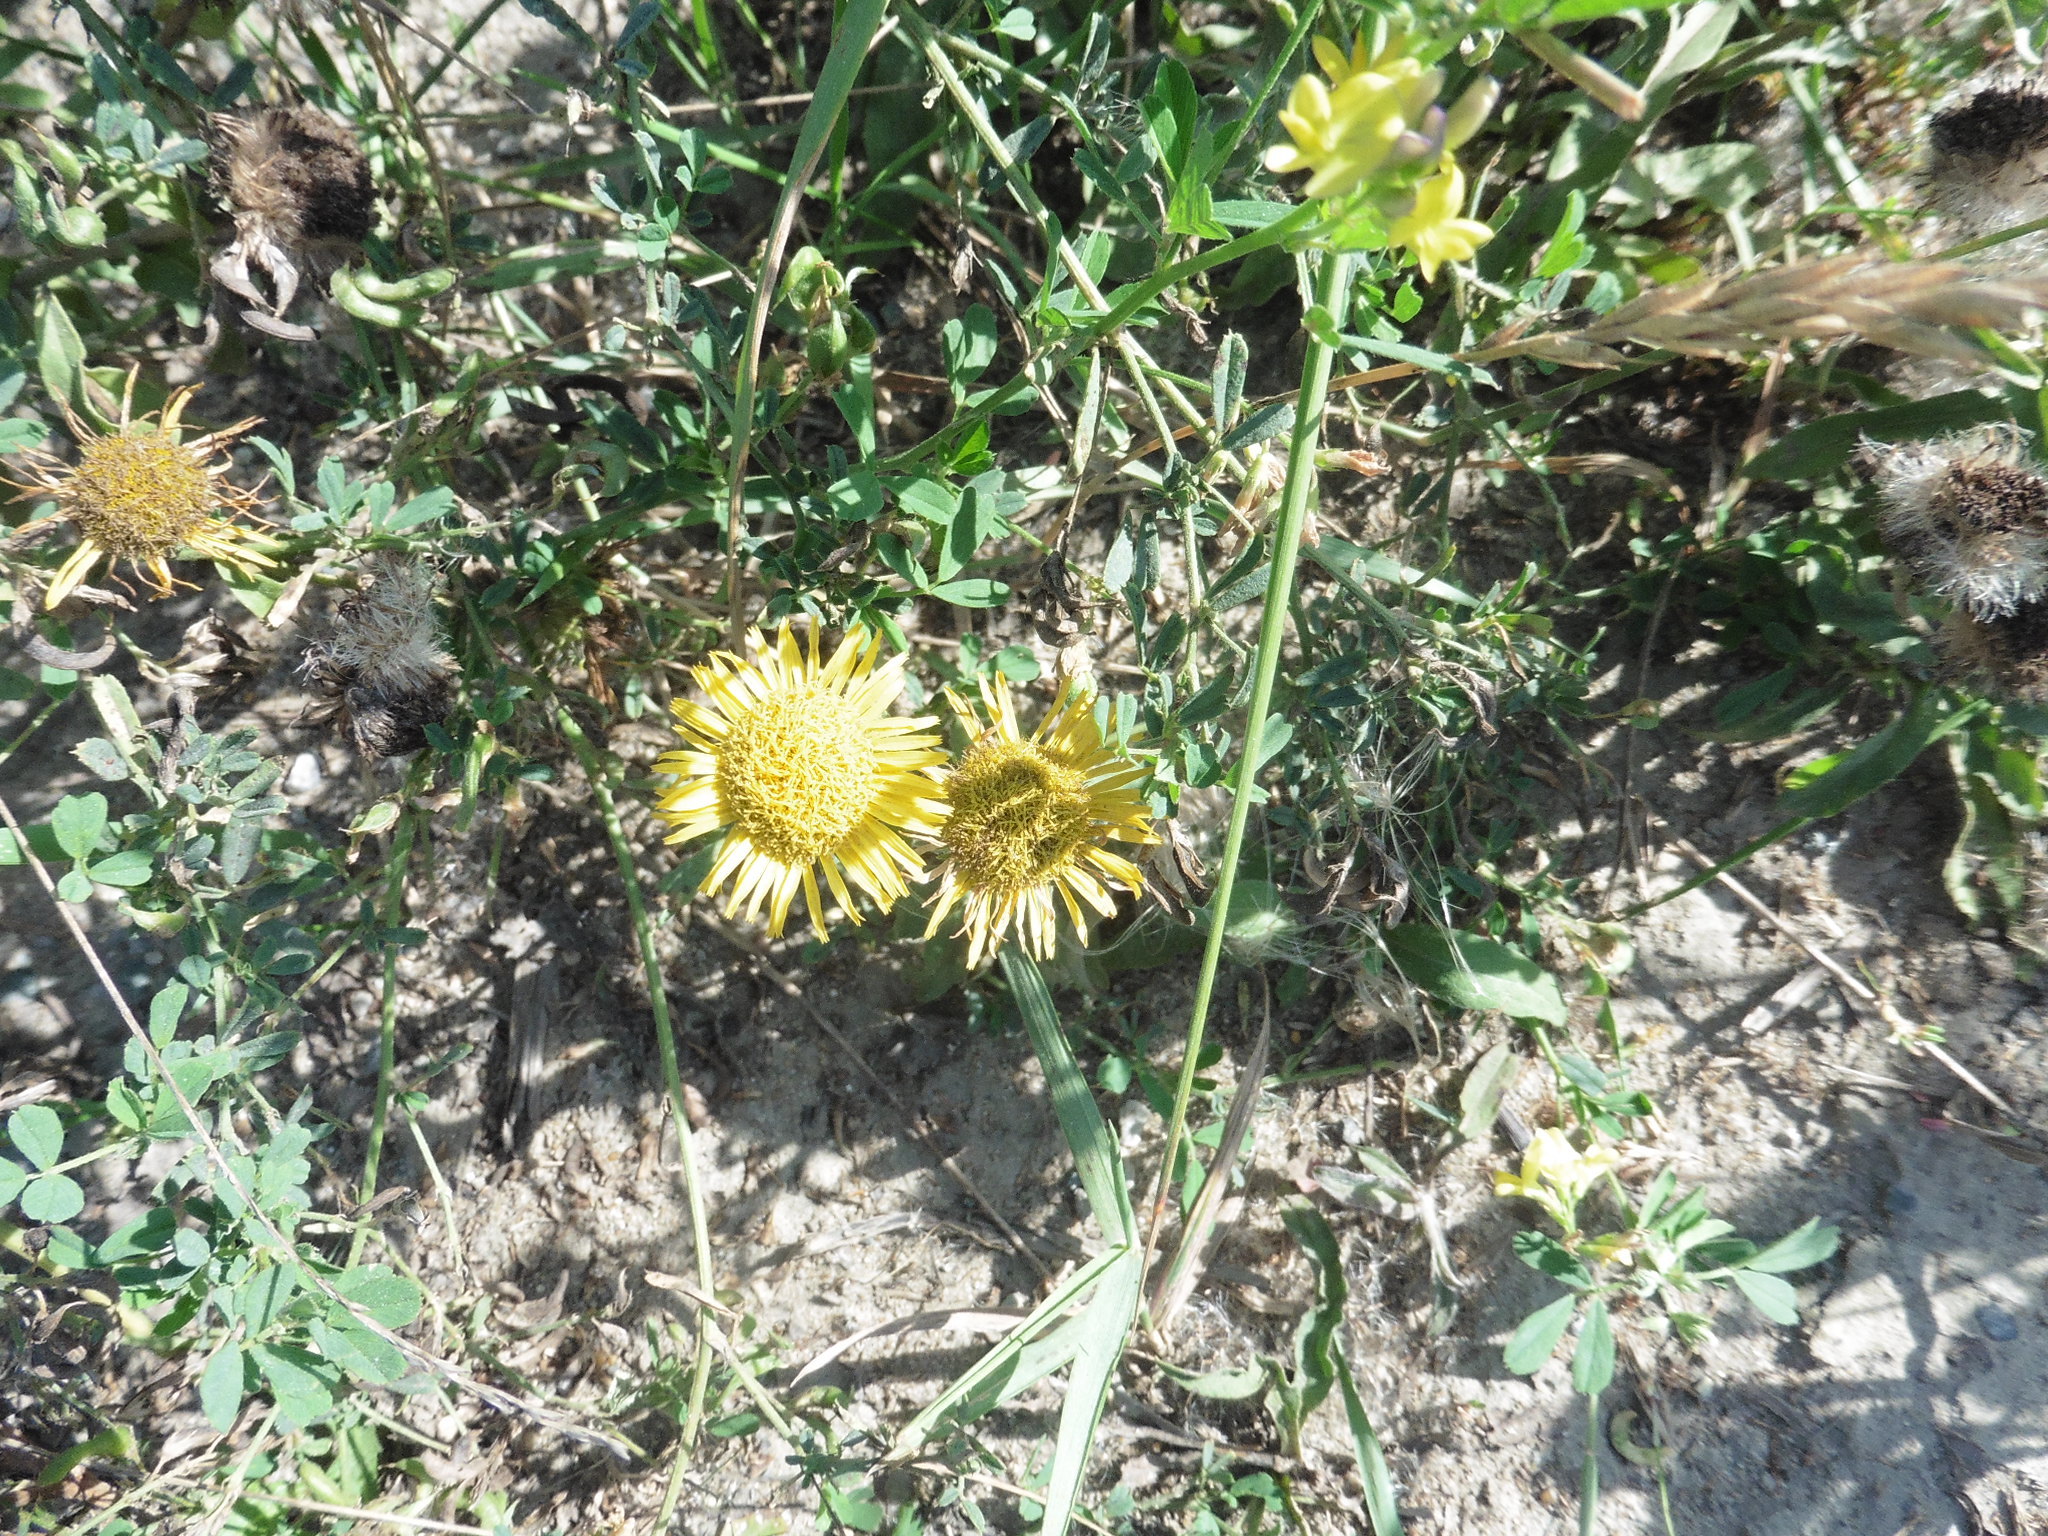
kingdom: Plantae
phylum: Tracheophyta
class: Magnoliopsida
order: Asterales
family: Asteraceae
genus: Pentanema
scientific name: Pentanema britannicum
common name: British elecampane
